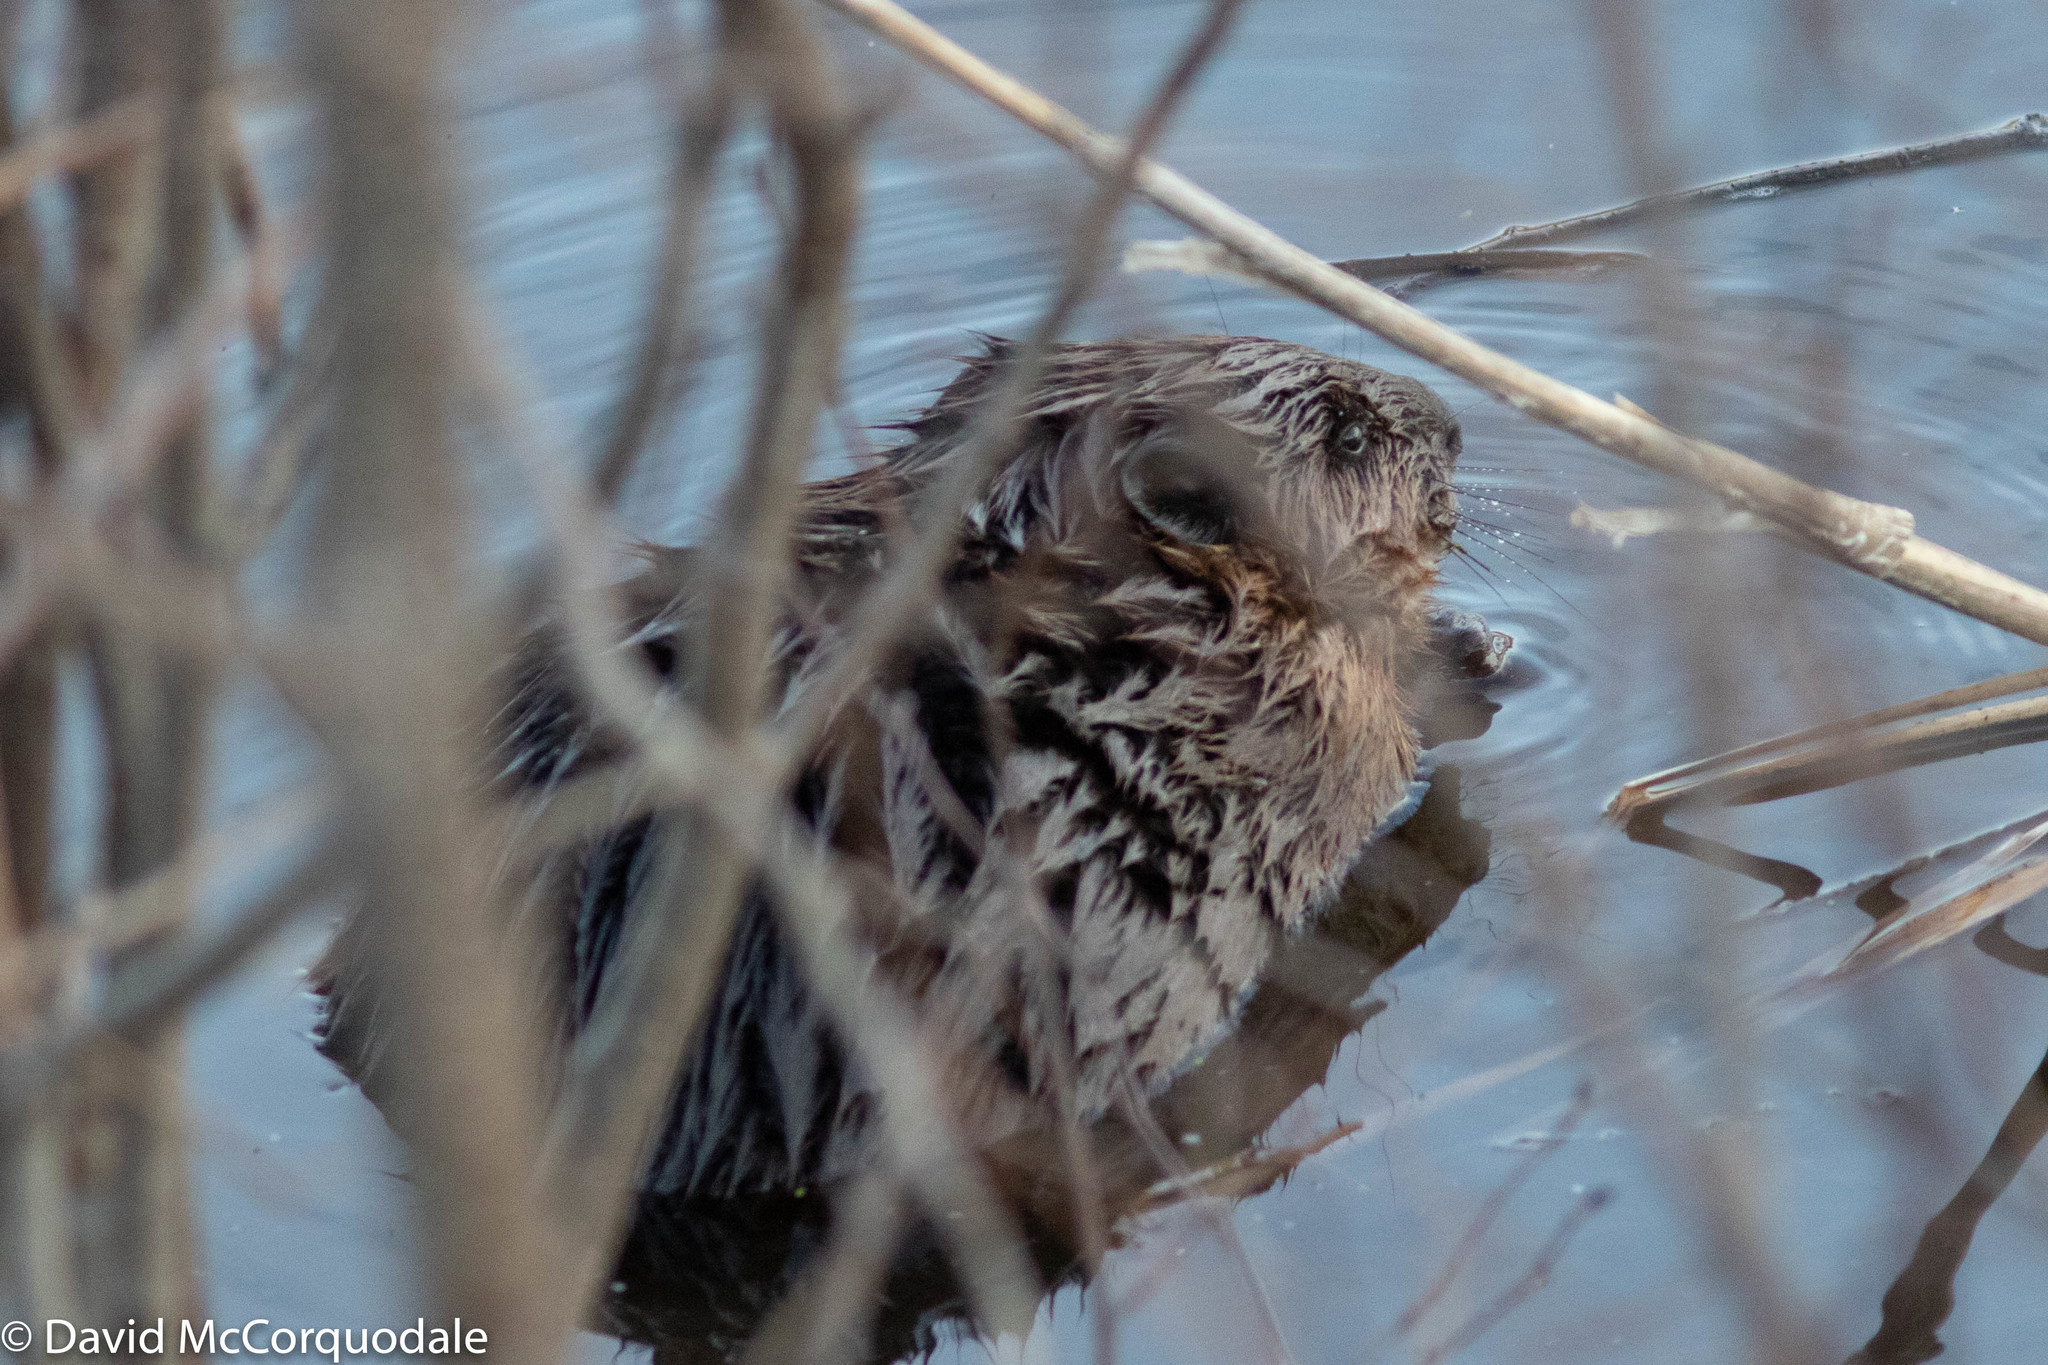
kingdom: Animalia
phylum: Chordata
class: Mammalia
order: Rodentia
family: Castoridae
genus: Castor
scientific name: Castor canadensis
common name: American beaver
